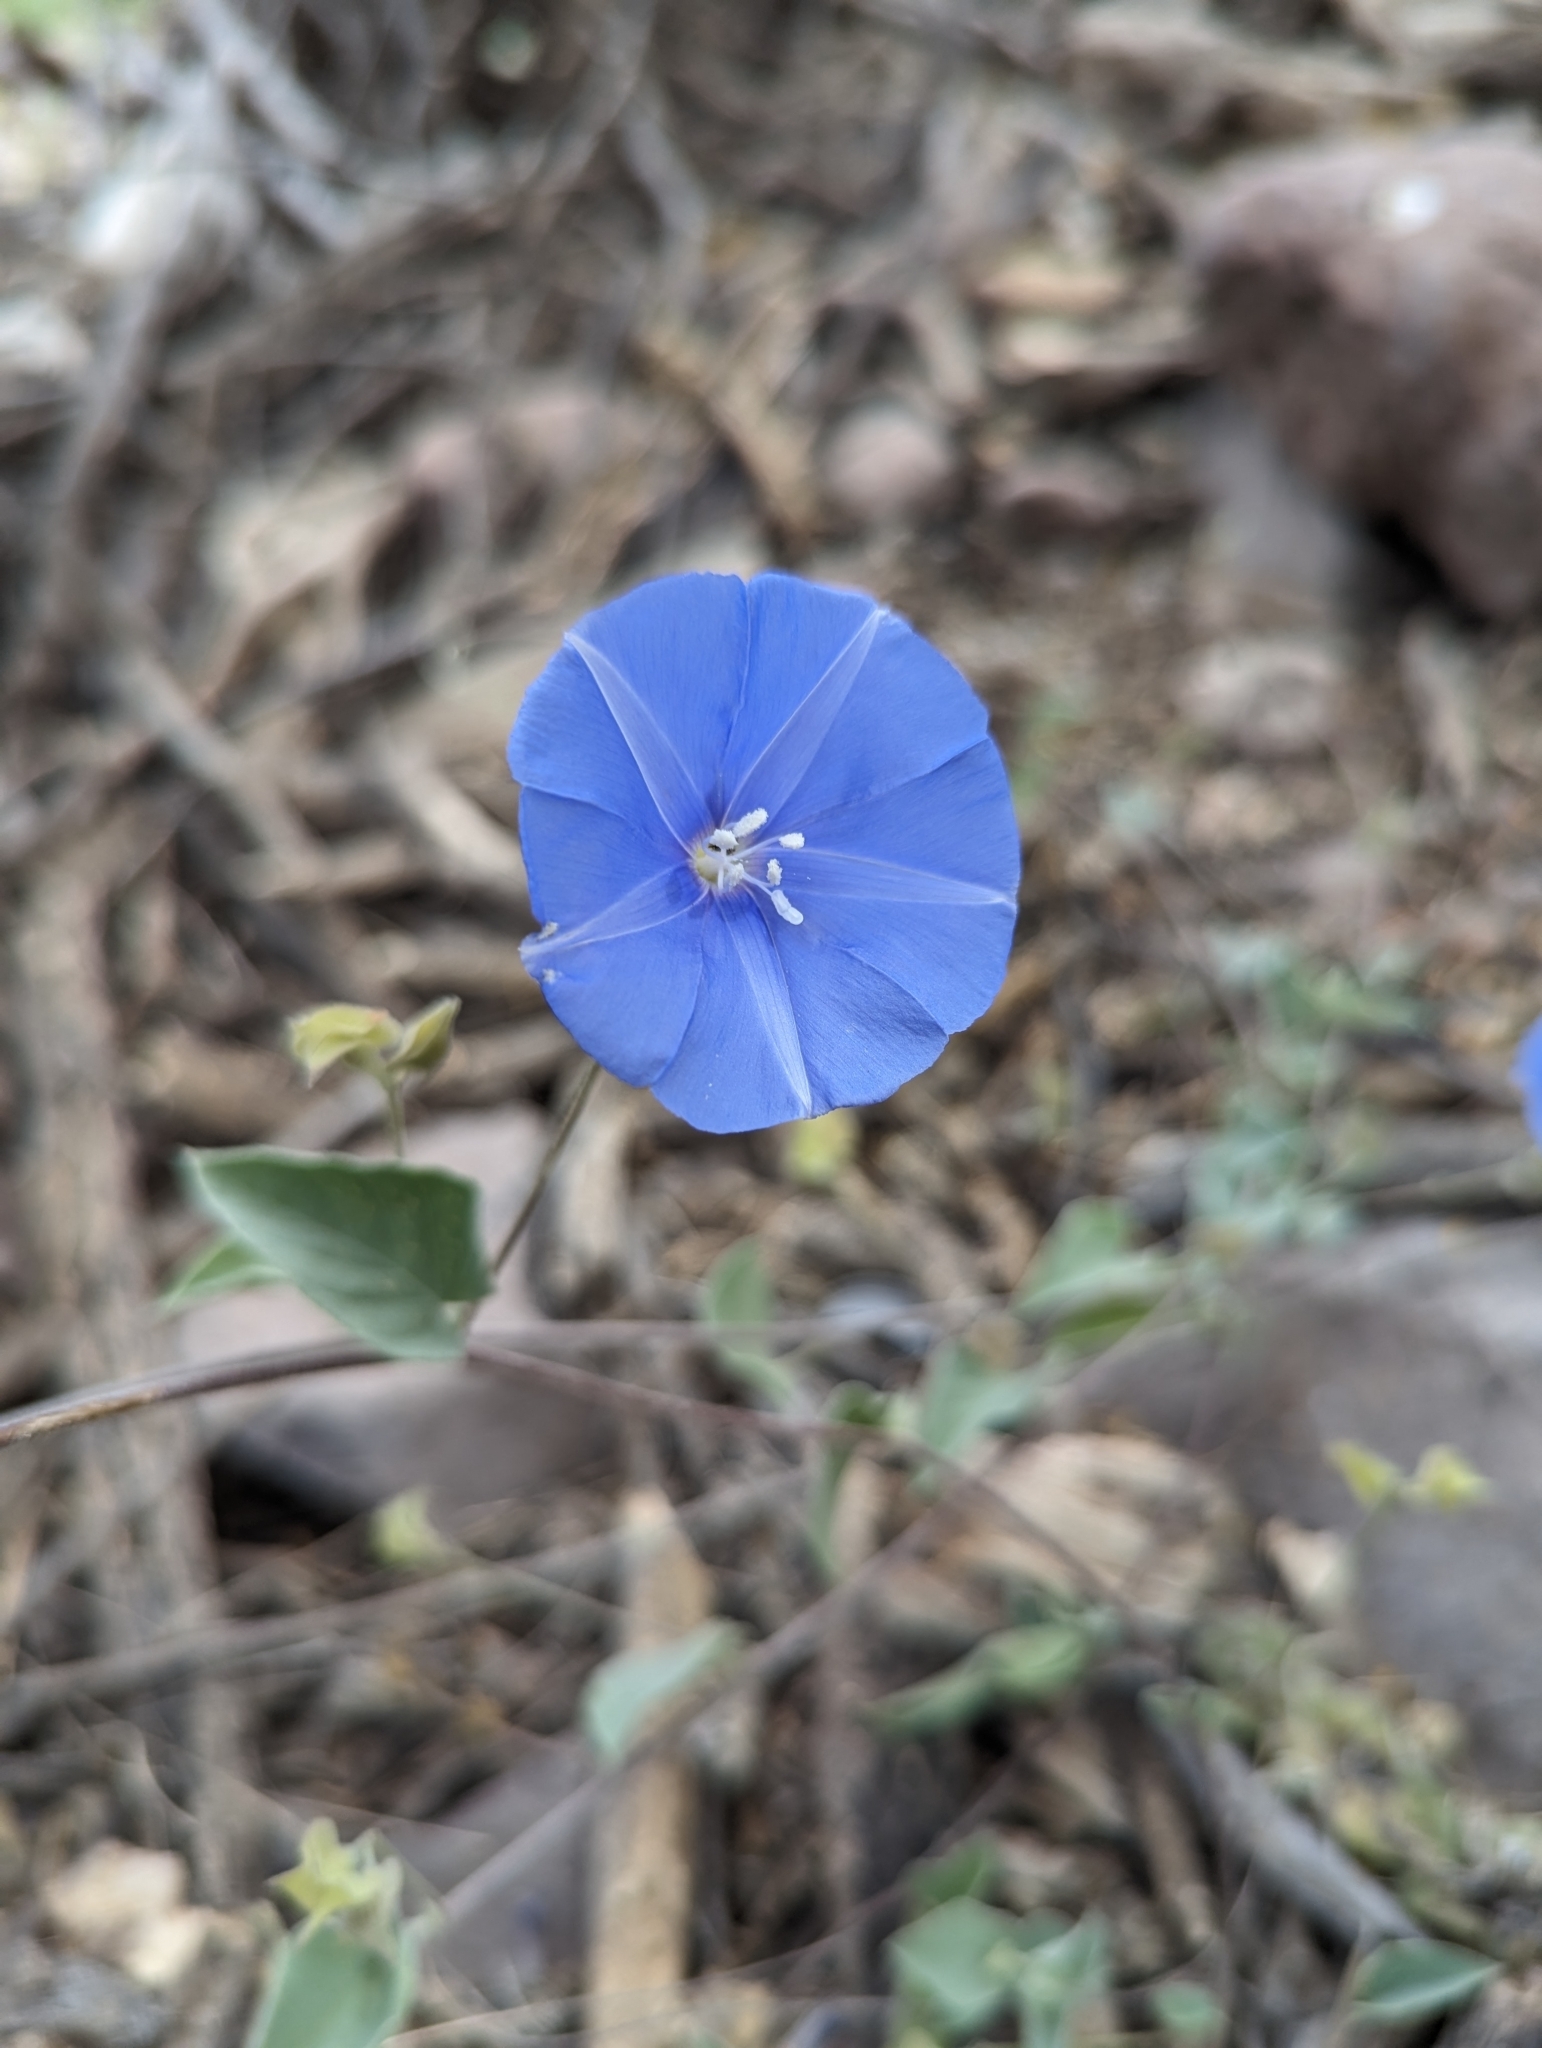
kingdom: Plantae
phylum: Tracheophyta
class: Magnoliopsida
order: Solanales
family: Convolvulaceae
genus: Jacquemontia
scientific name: Jacquemontia abutiloides
